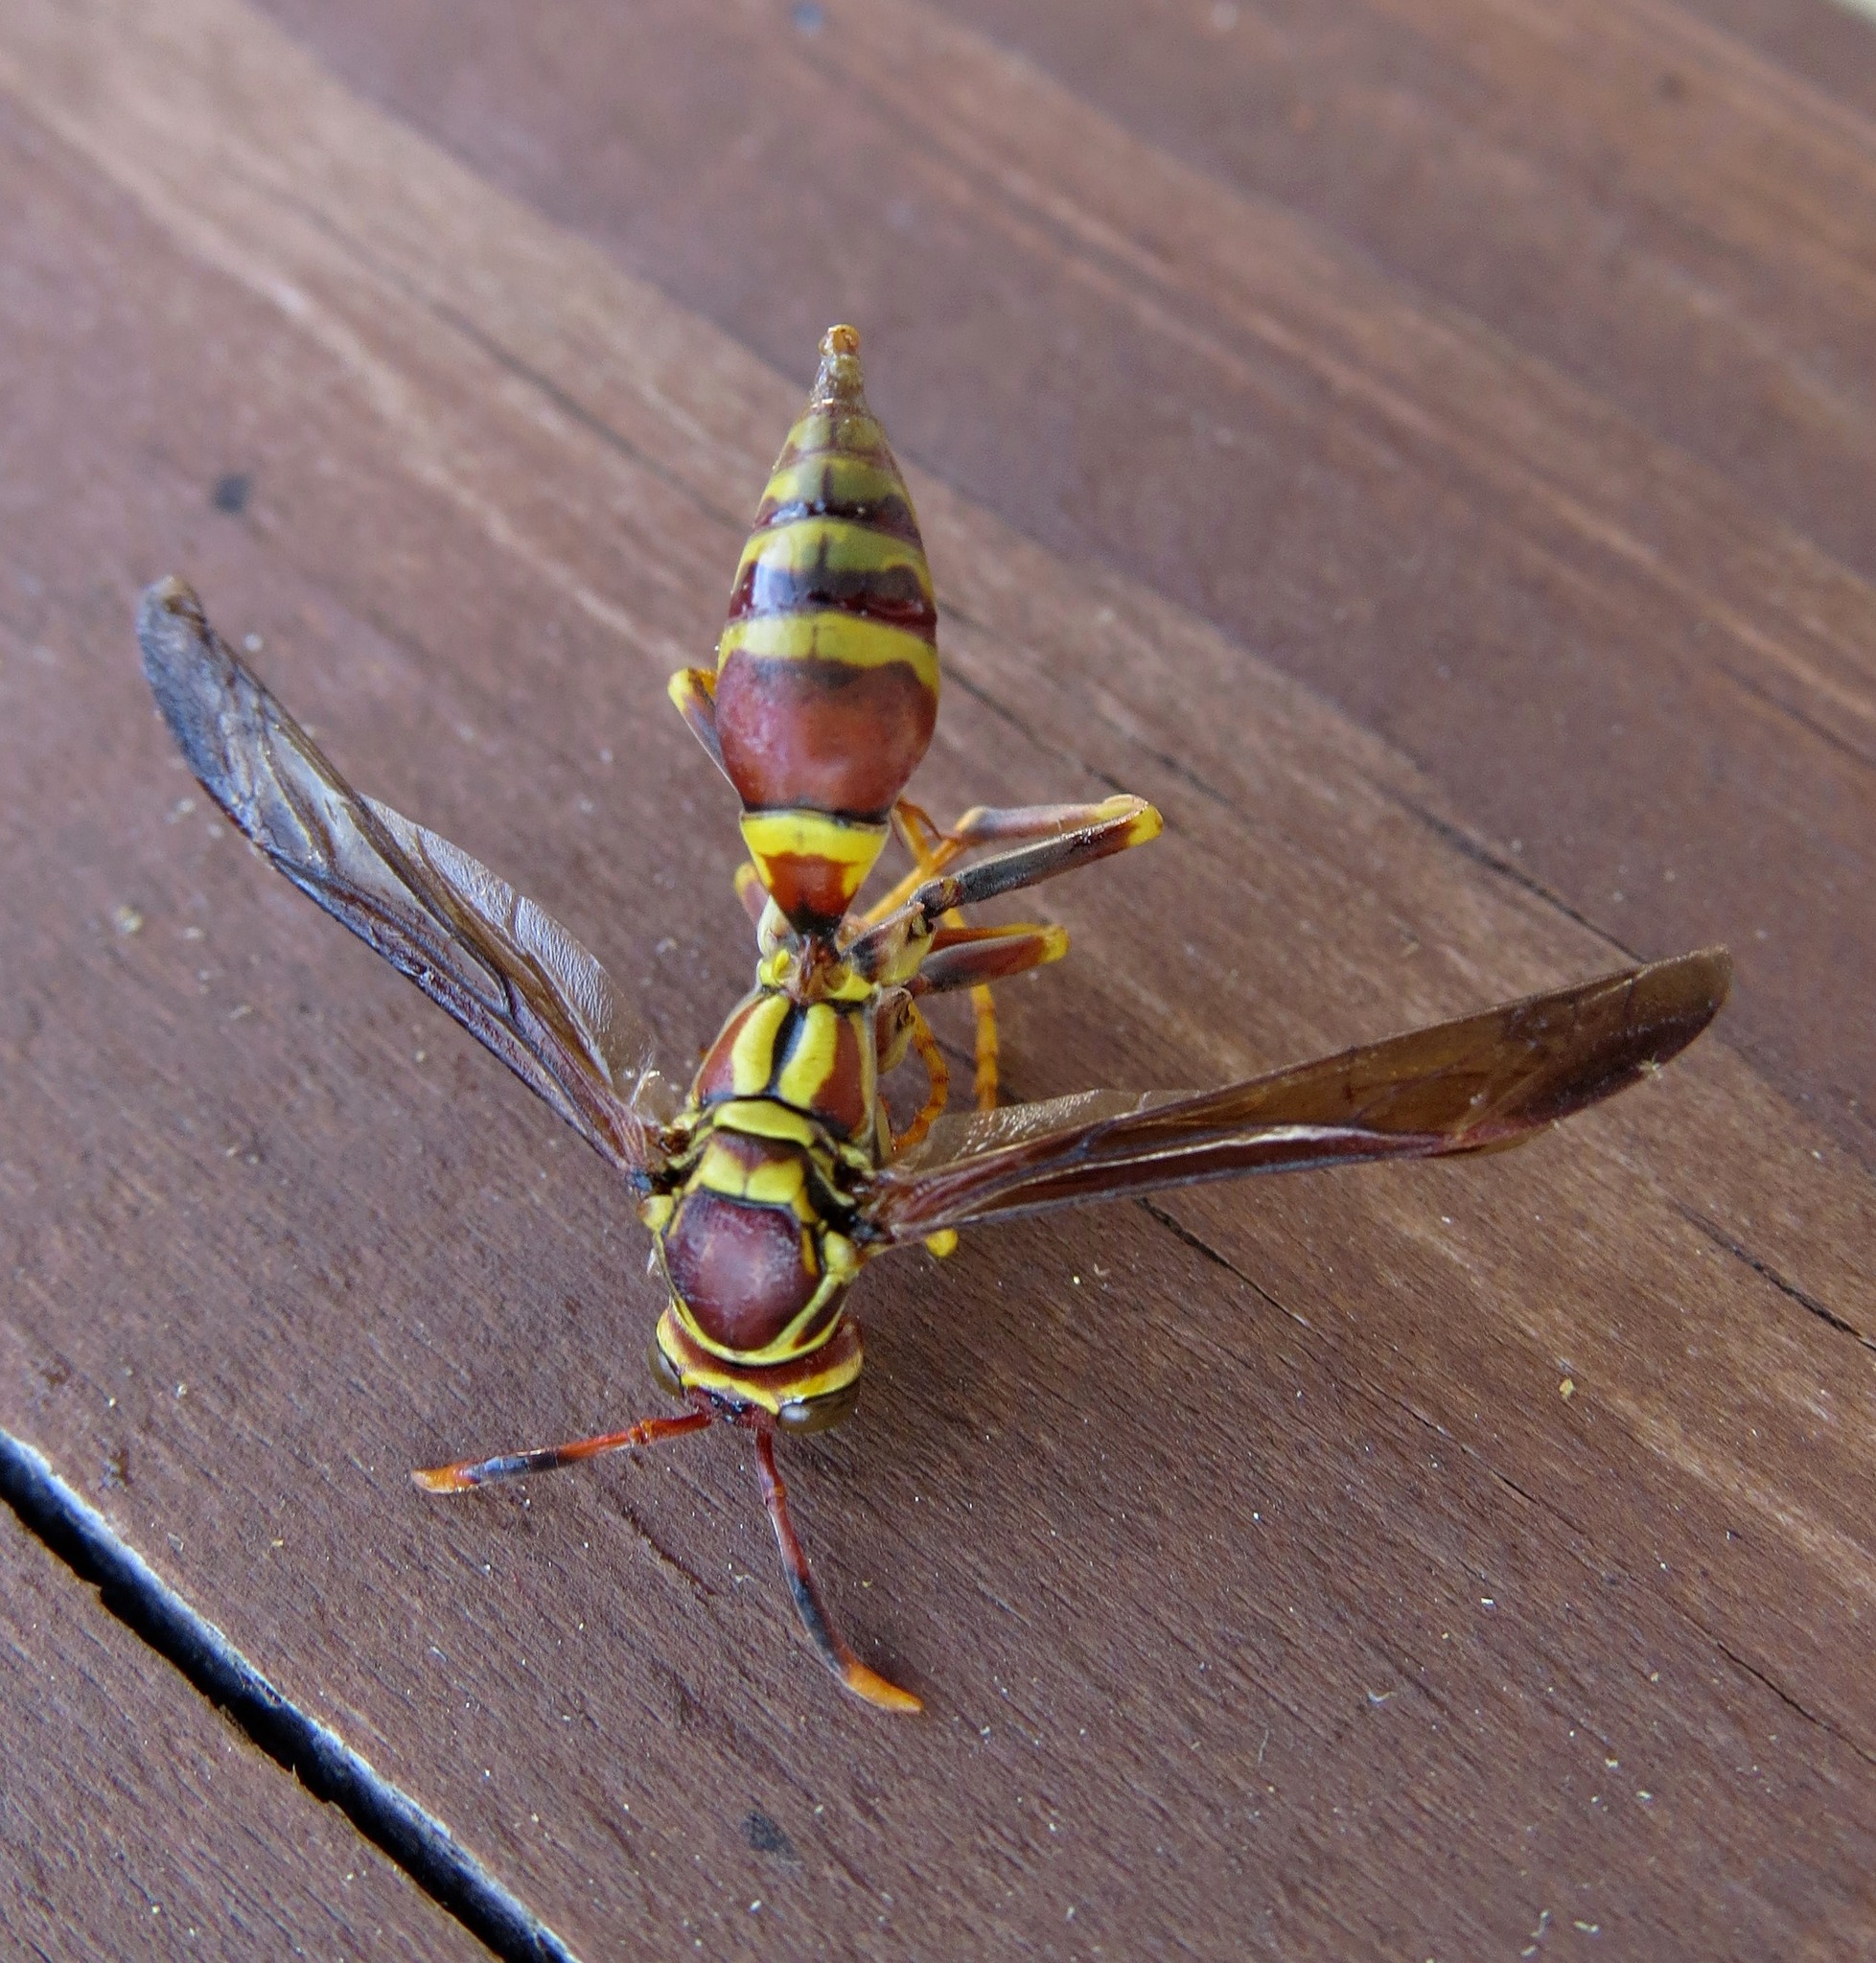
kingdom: Animalia
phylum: Arthropoda
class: Insecta
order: Hymenoptera
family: Eumenidae
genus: Polistes
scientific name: Polistes exclamans
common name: Paper wasp
